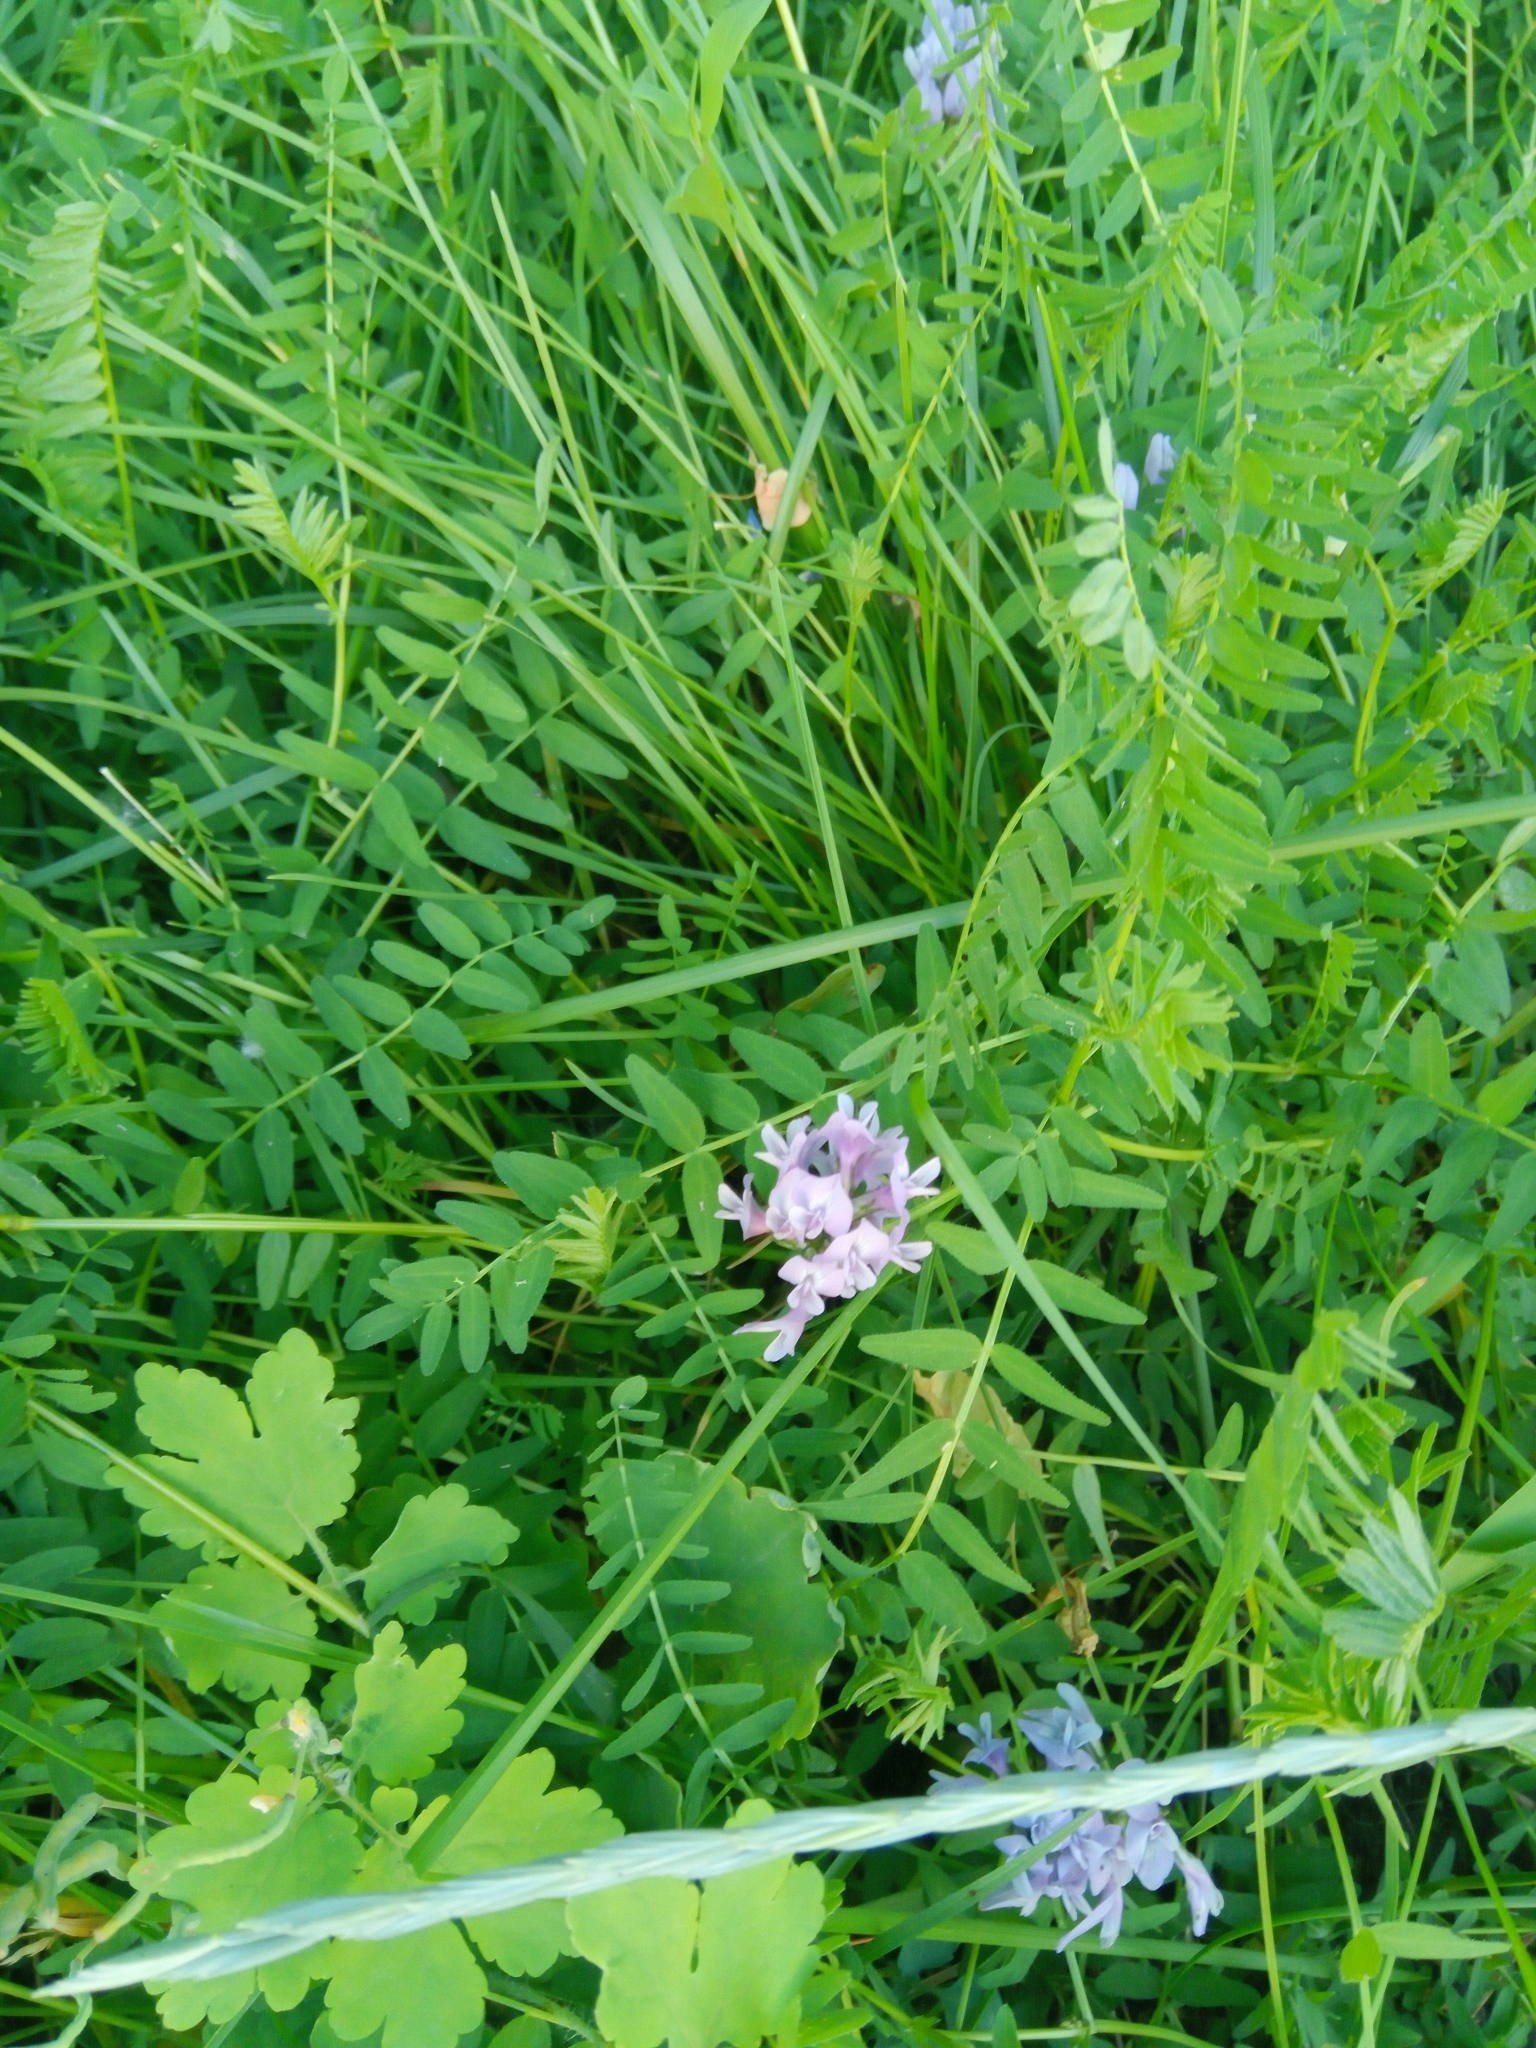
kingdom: Plantae
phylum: Tracheophyta
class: Magnoliopsida
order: Fabales
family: Fabaceae
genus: Astragalus
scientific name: Astragalus danicus
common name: Purple milk-vetch
